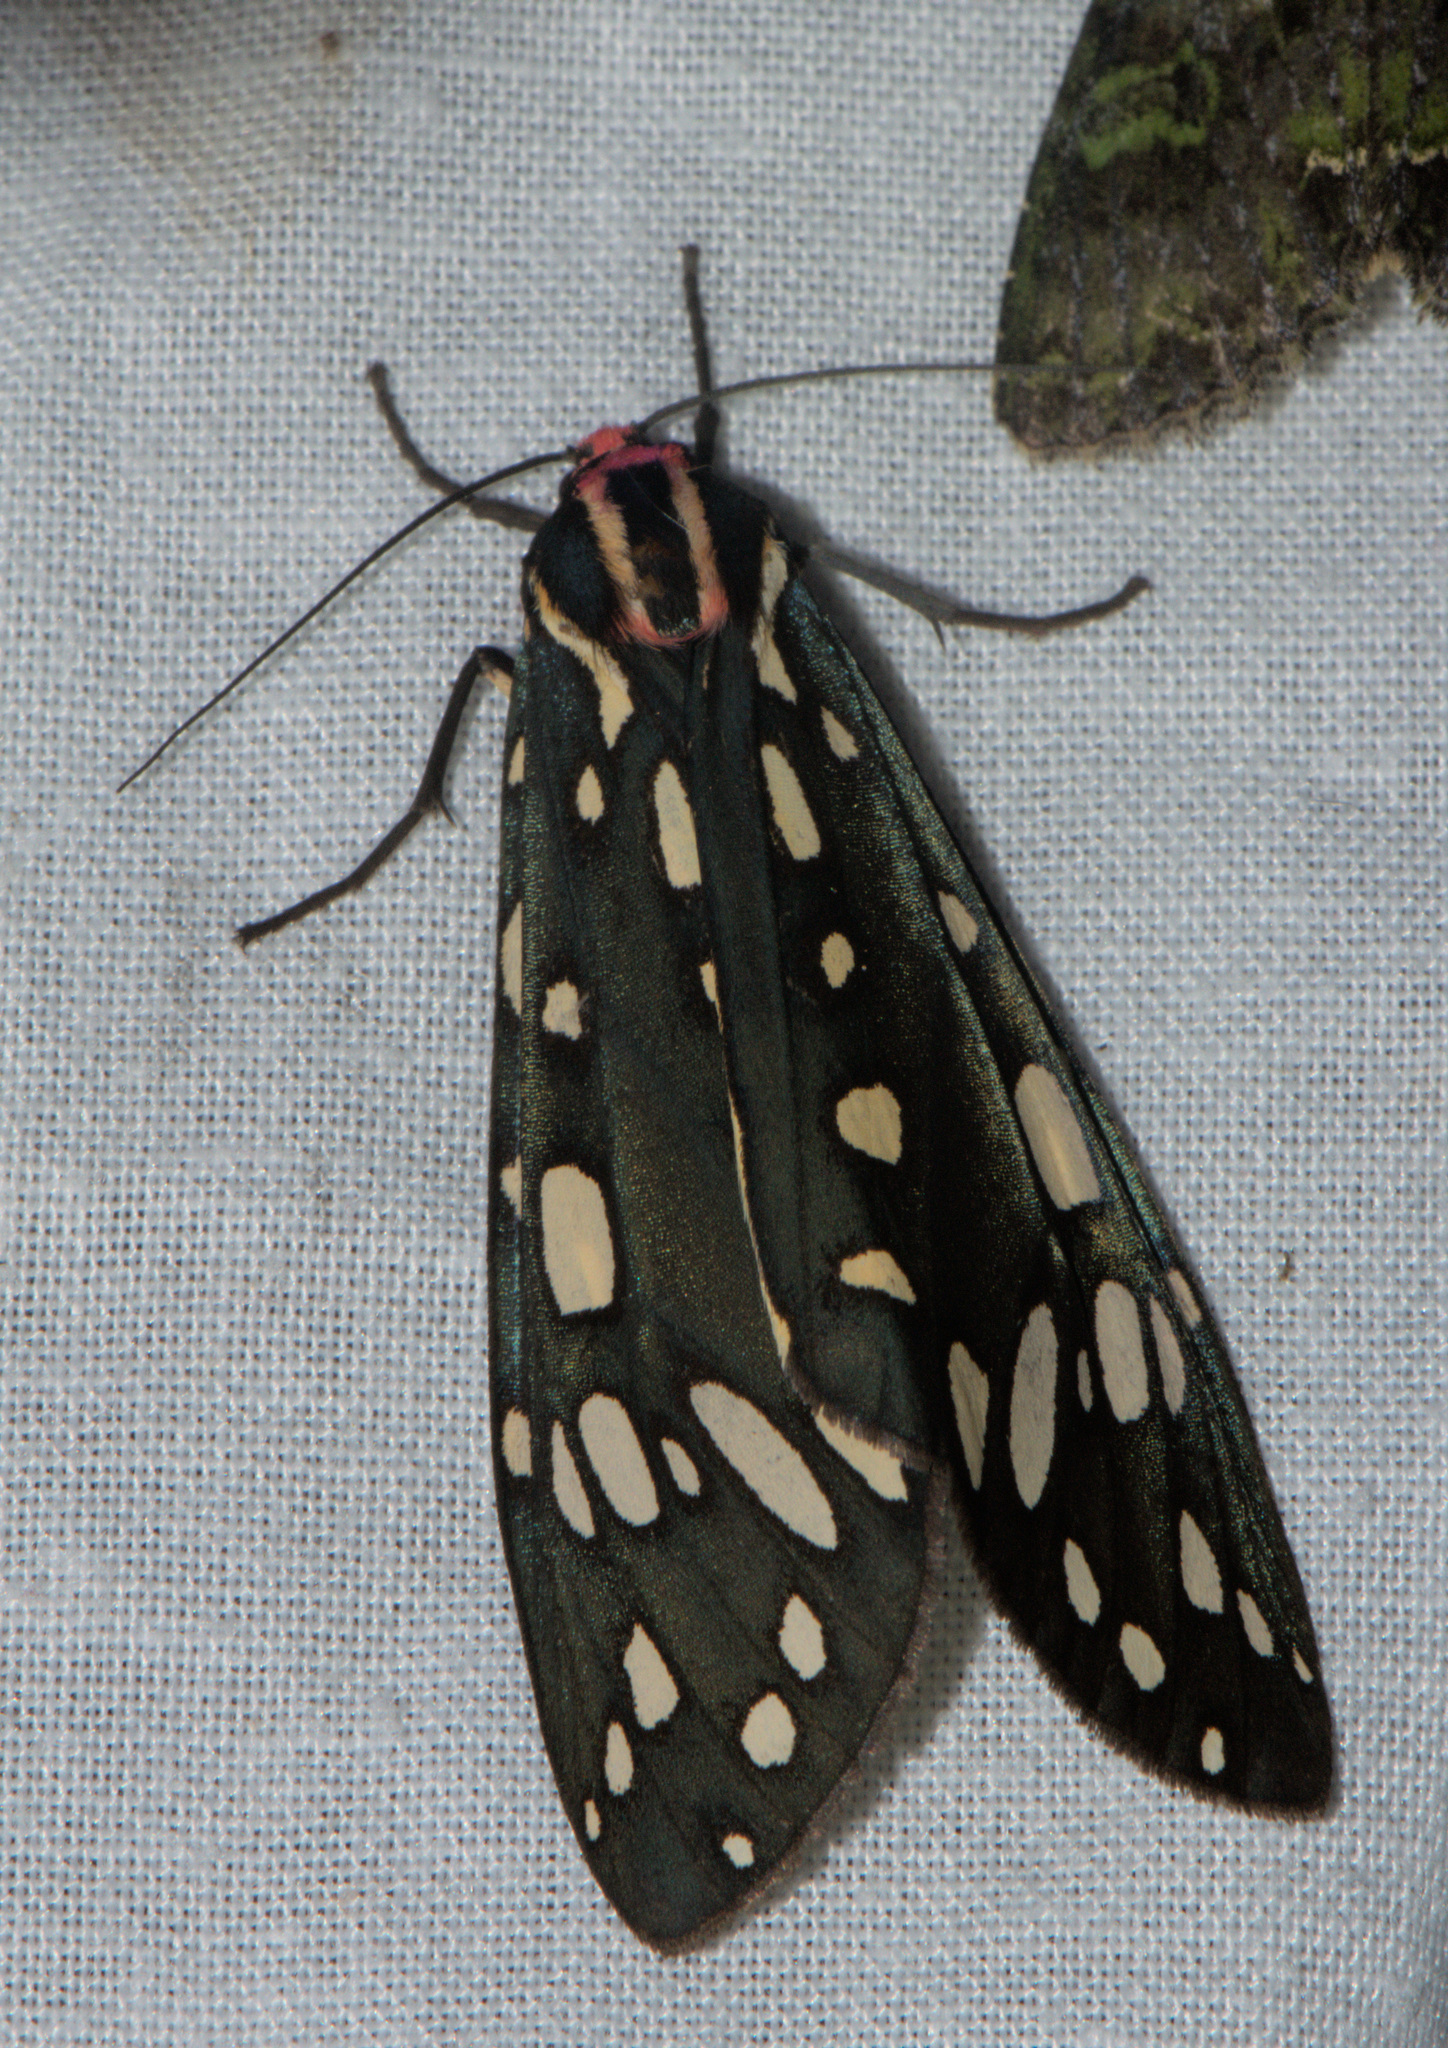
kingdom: Animalia
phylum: Arthropoda
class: Insecta
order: Lepidoptera
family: Erebidae
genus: Callindra
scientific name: Callindra principalis
